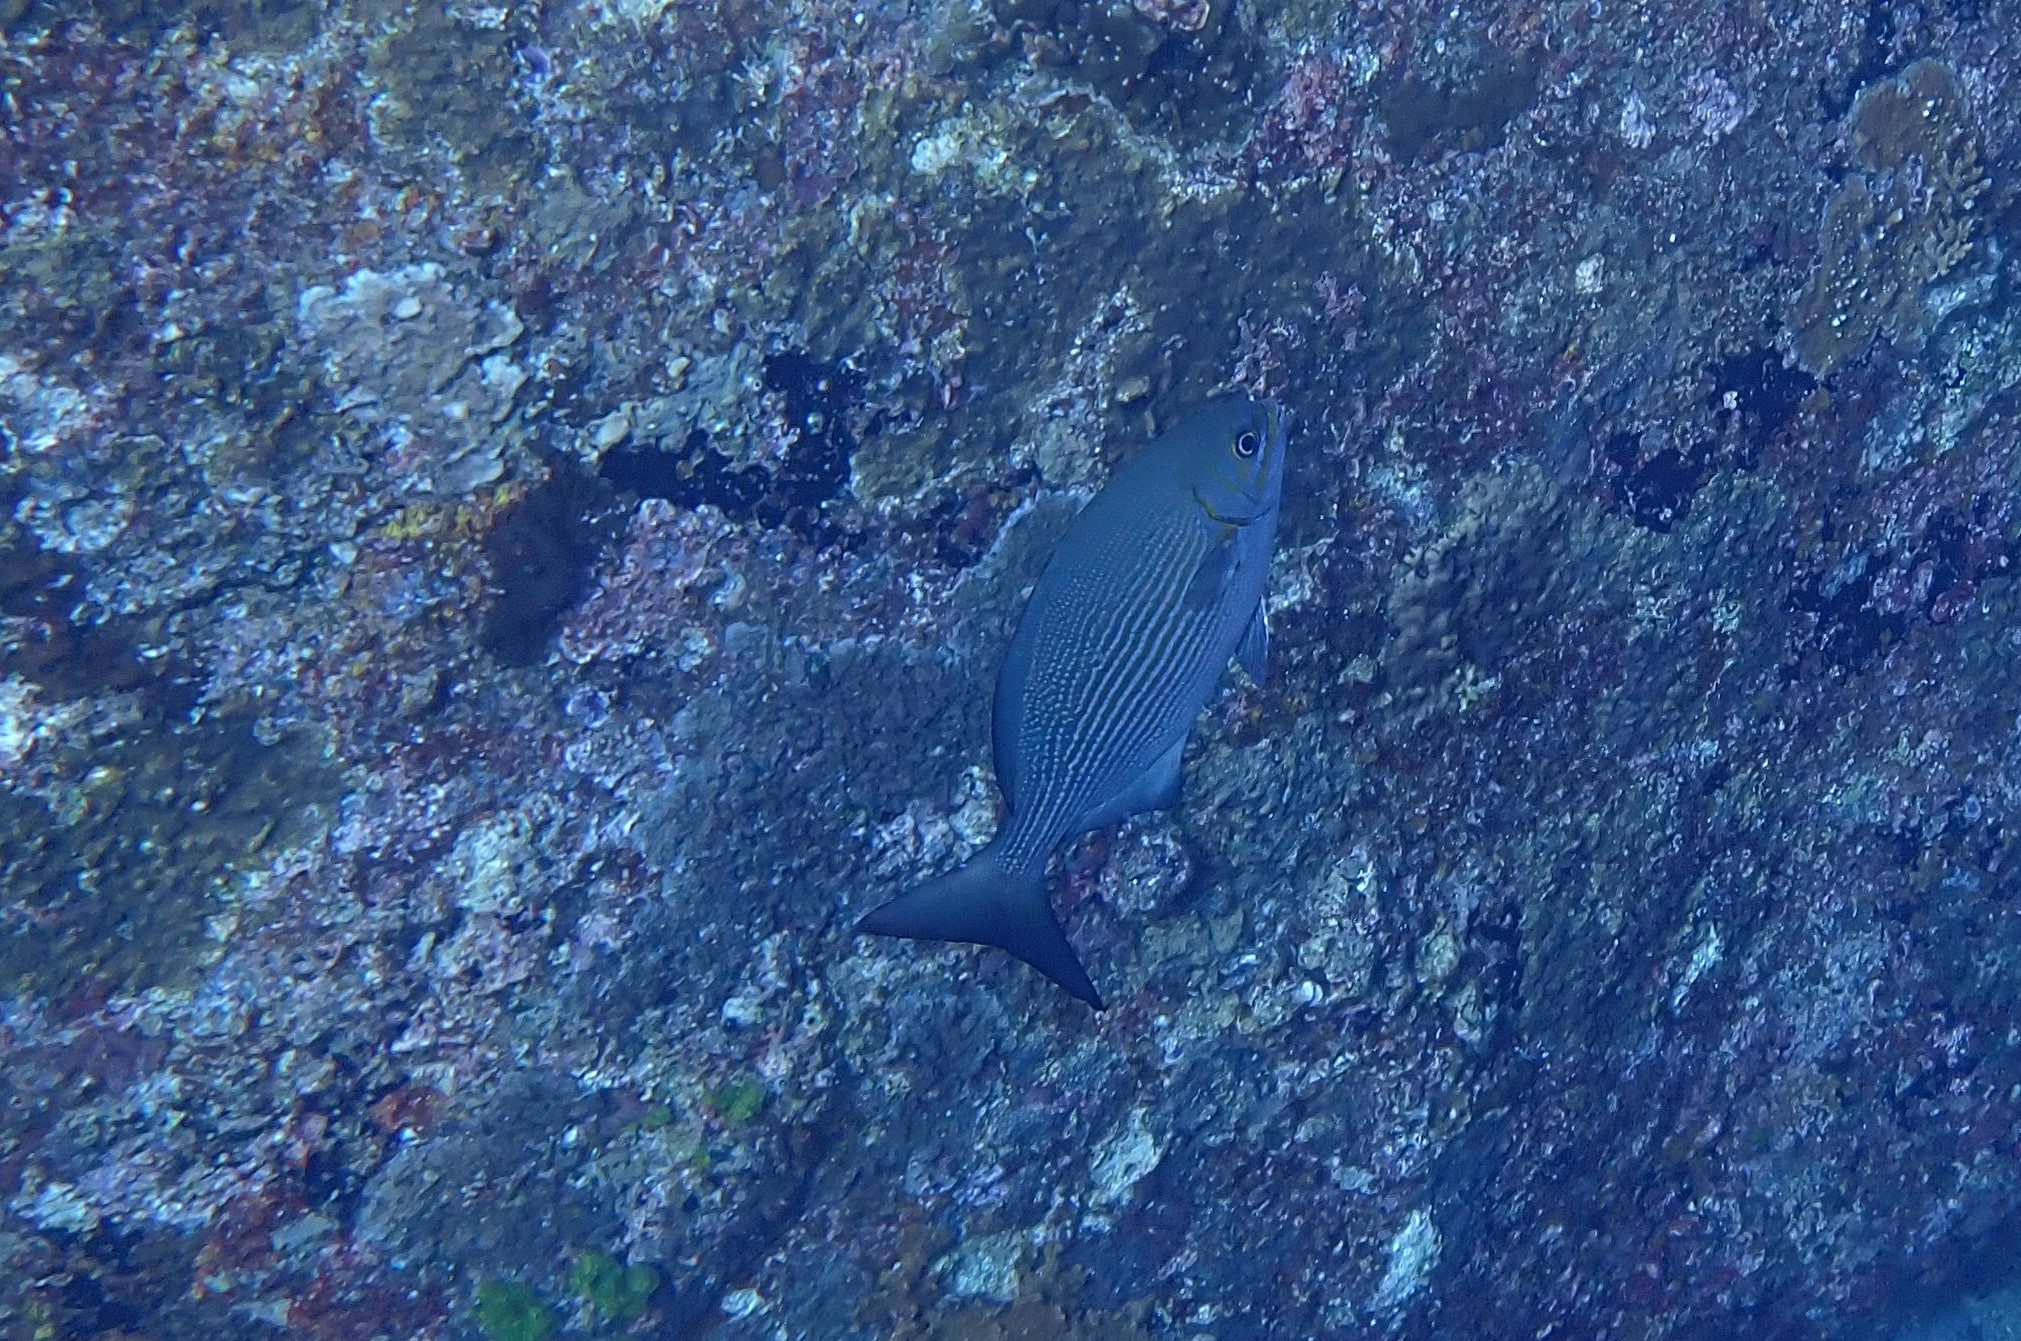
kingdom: Animalia
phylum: Chordata
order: Perciformes
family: Kyphosidae
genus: Kyphosus
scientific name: Kyphosus vaigiensis
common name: Brassy chub
